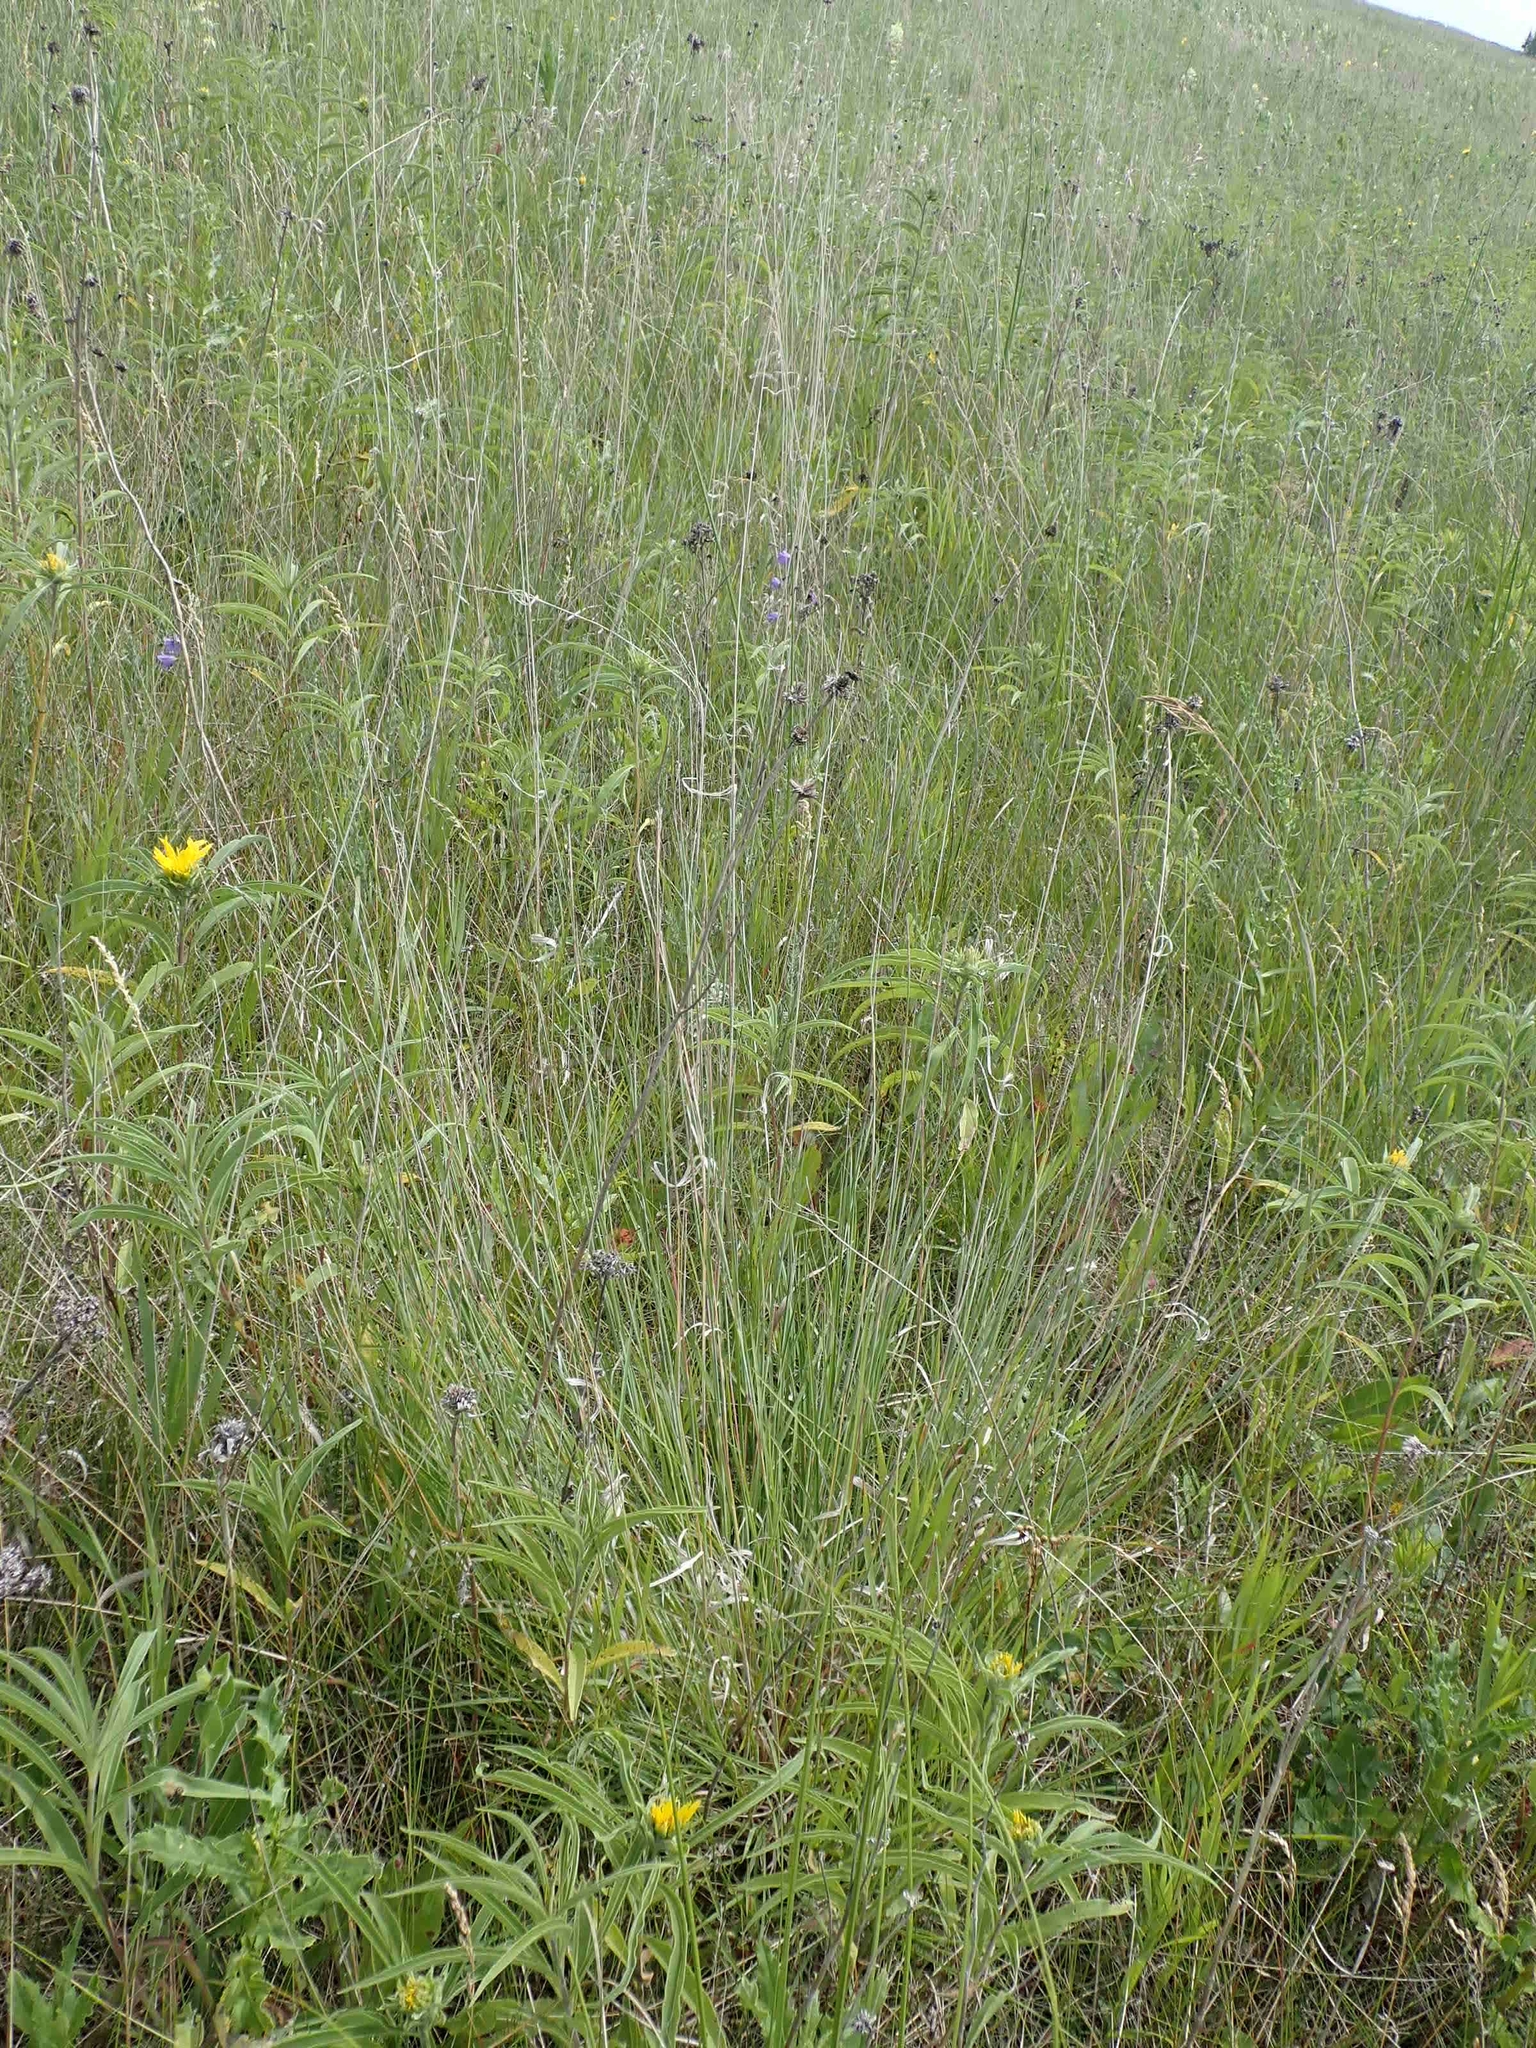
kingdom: Plantae
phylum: Tracheophyta
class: Liliopsida
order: Poales
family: Poaceae
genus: Andropogon
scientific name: Andropogon gerardi
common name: Big bluestem
